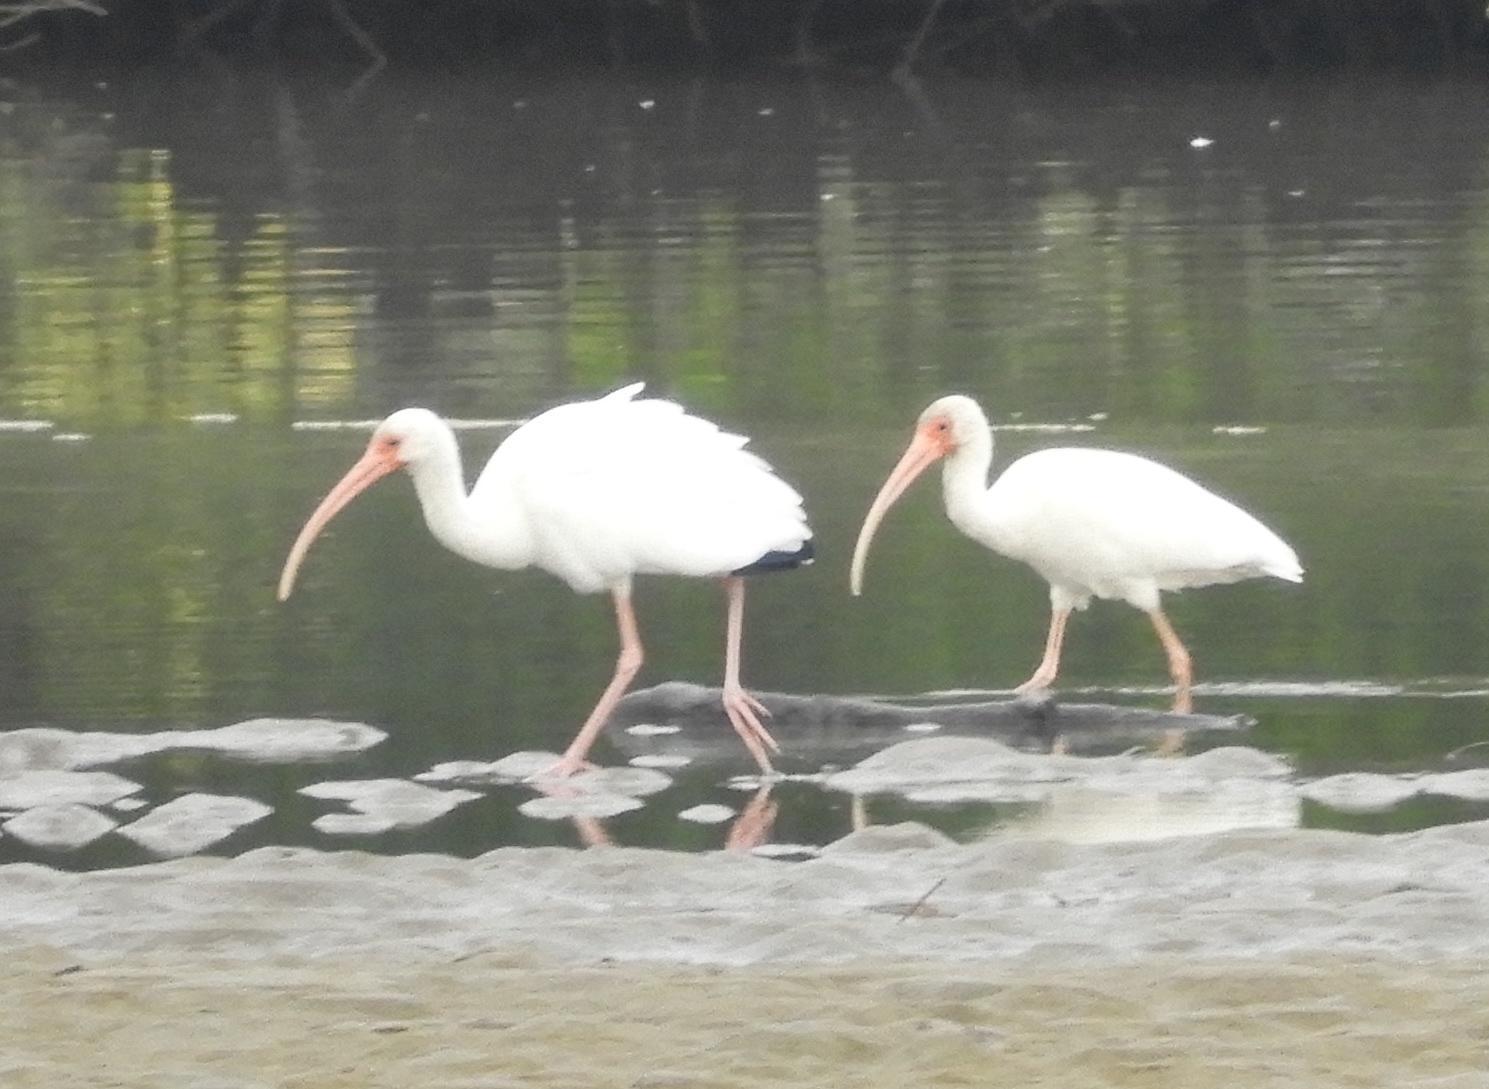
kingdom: Animalia
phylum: Chordata
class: Aves
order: Pelecaniformes
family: Threskiornithidae
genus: Eudocimus
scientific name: Eudocimus albus
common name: White ibis
